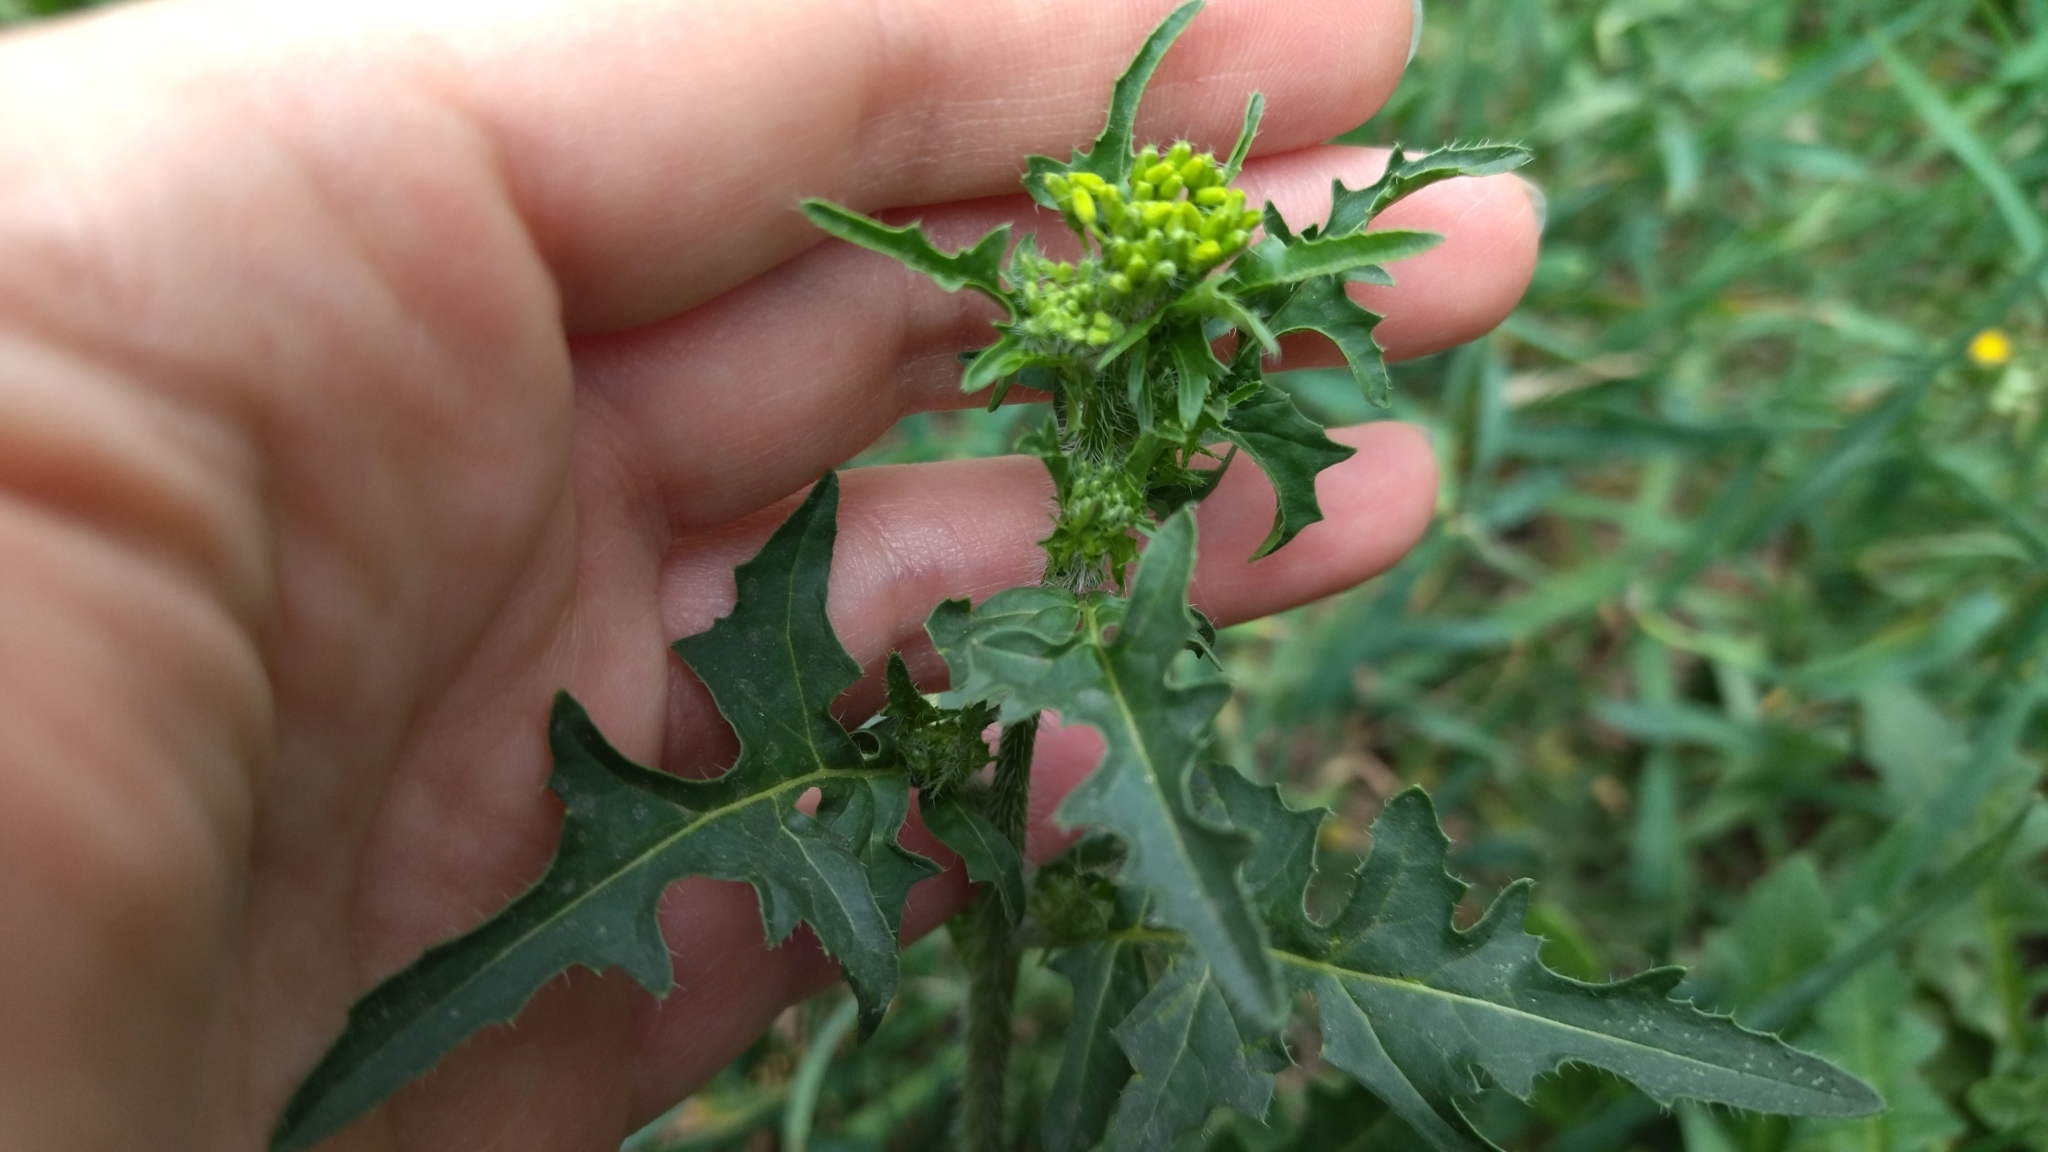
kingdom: Plantae
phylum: Tracheophyta
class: Magnoliopsida
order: Brassicales
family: Brassicaceae
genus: Sisymbrium
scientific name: Sisymbrium loeselii
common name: False london-rocket
